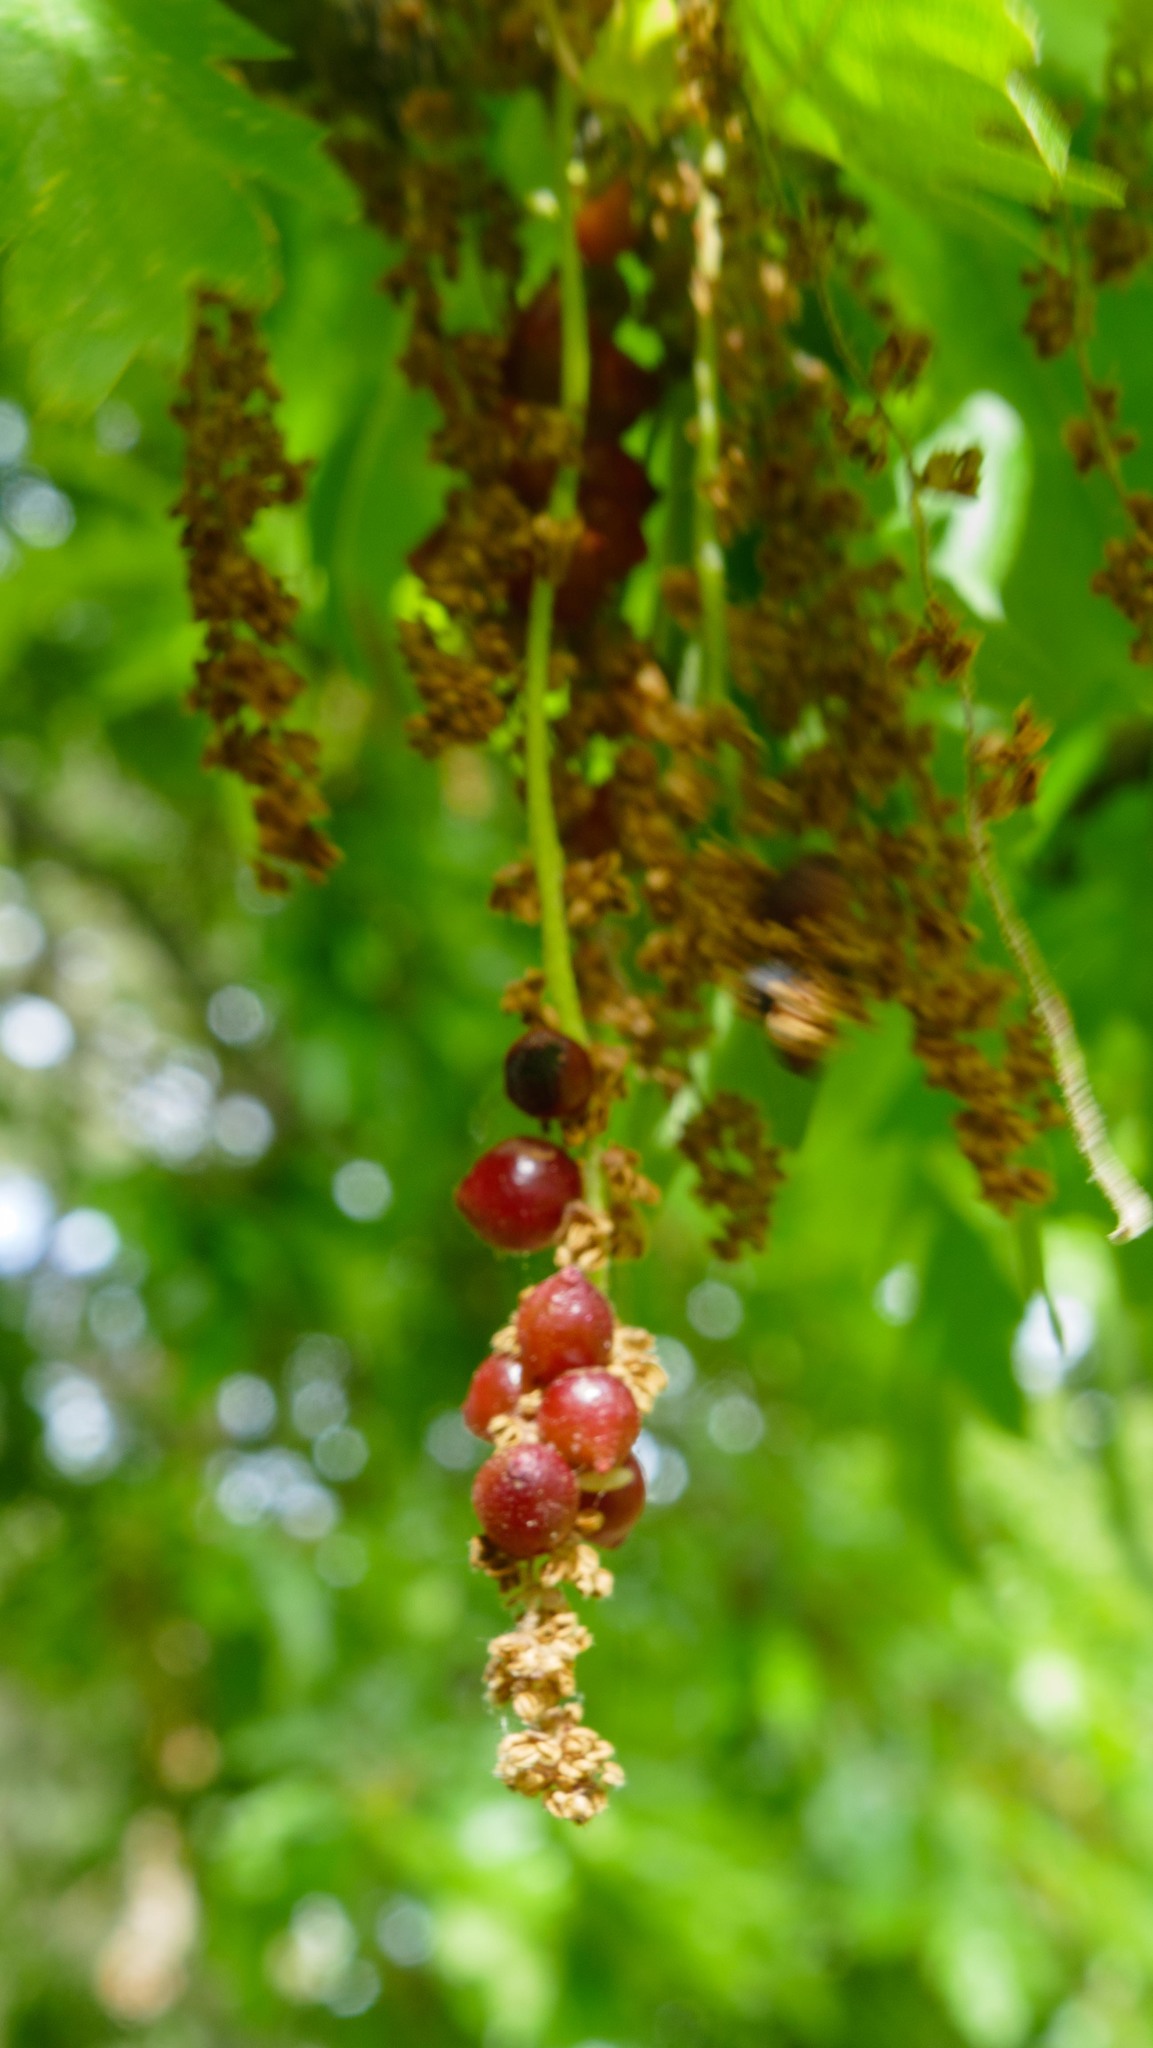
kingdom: Animalia
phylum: Arthropoda
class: Insecta
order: Hymenoptera
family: Cynipidae
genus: Andricus
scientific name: Andricus grossulariae
